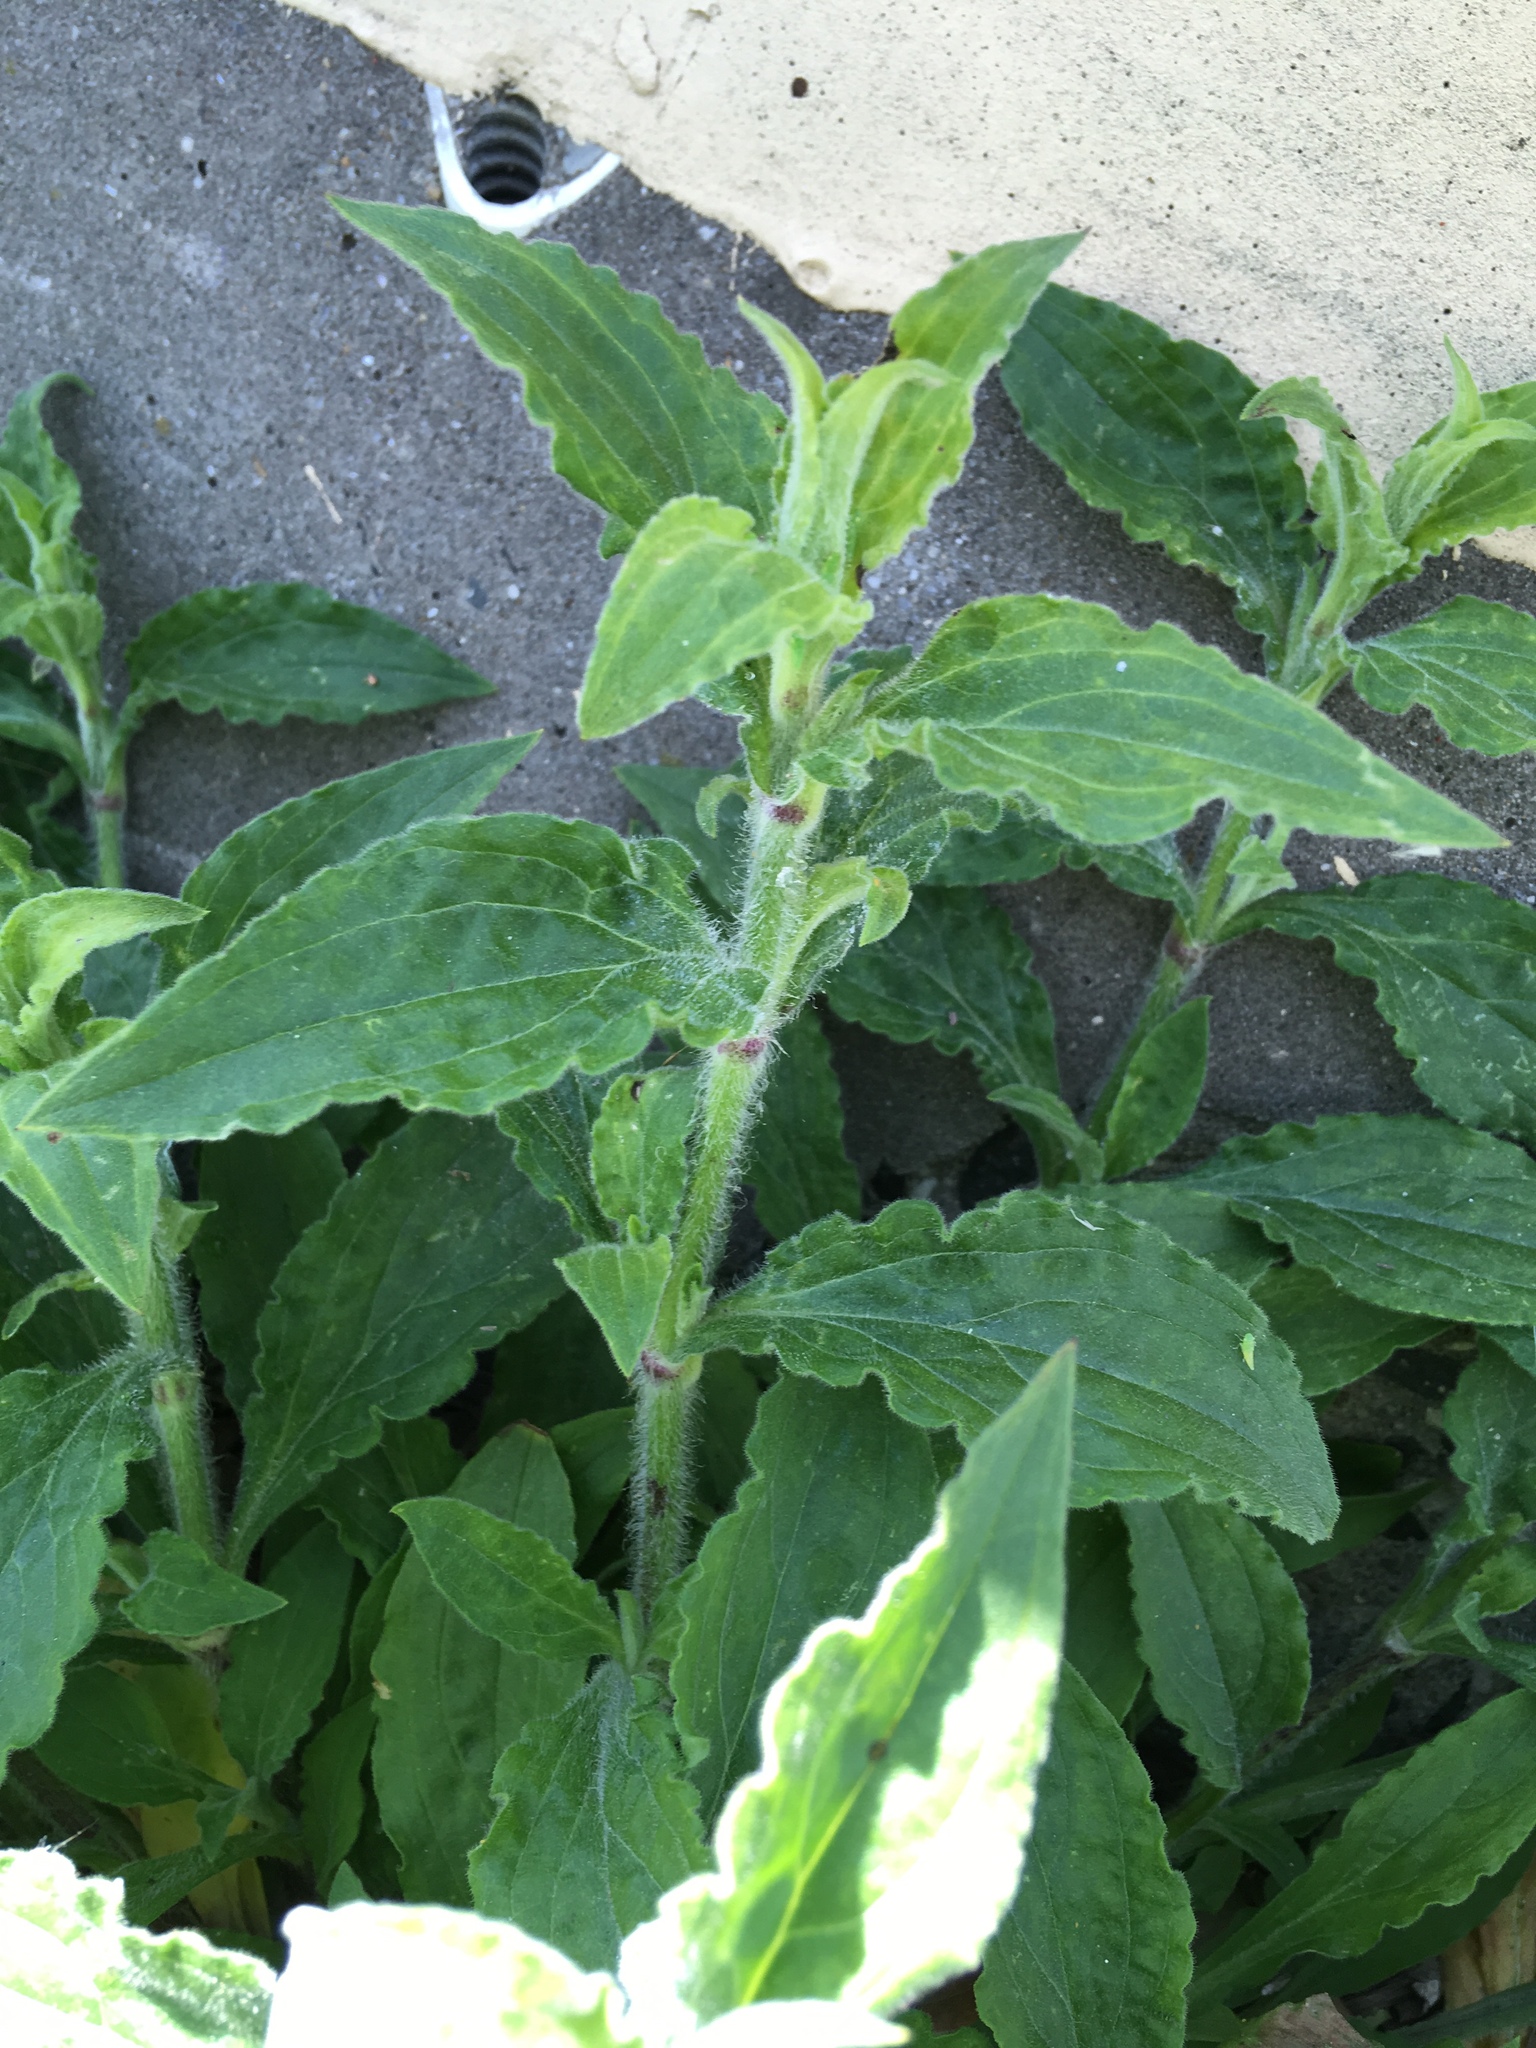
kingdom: Plantae
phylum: Tracheophyta
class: Magnoliopsida
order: Caryophyllales
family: Caryophyllaceae
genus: Silene
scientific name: Silene latifolia
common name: White campion
